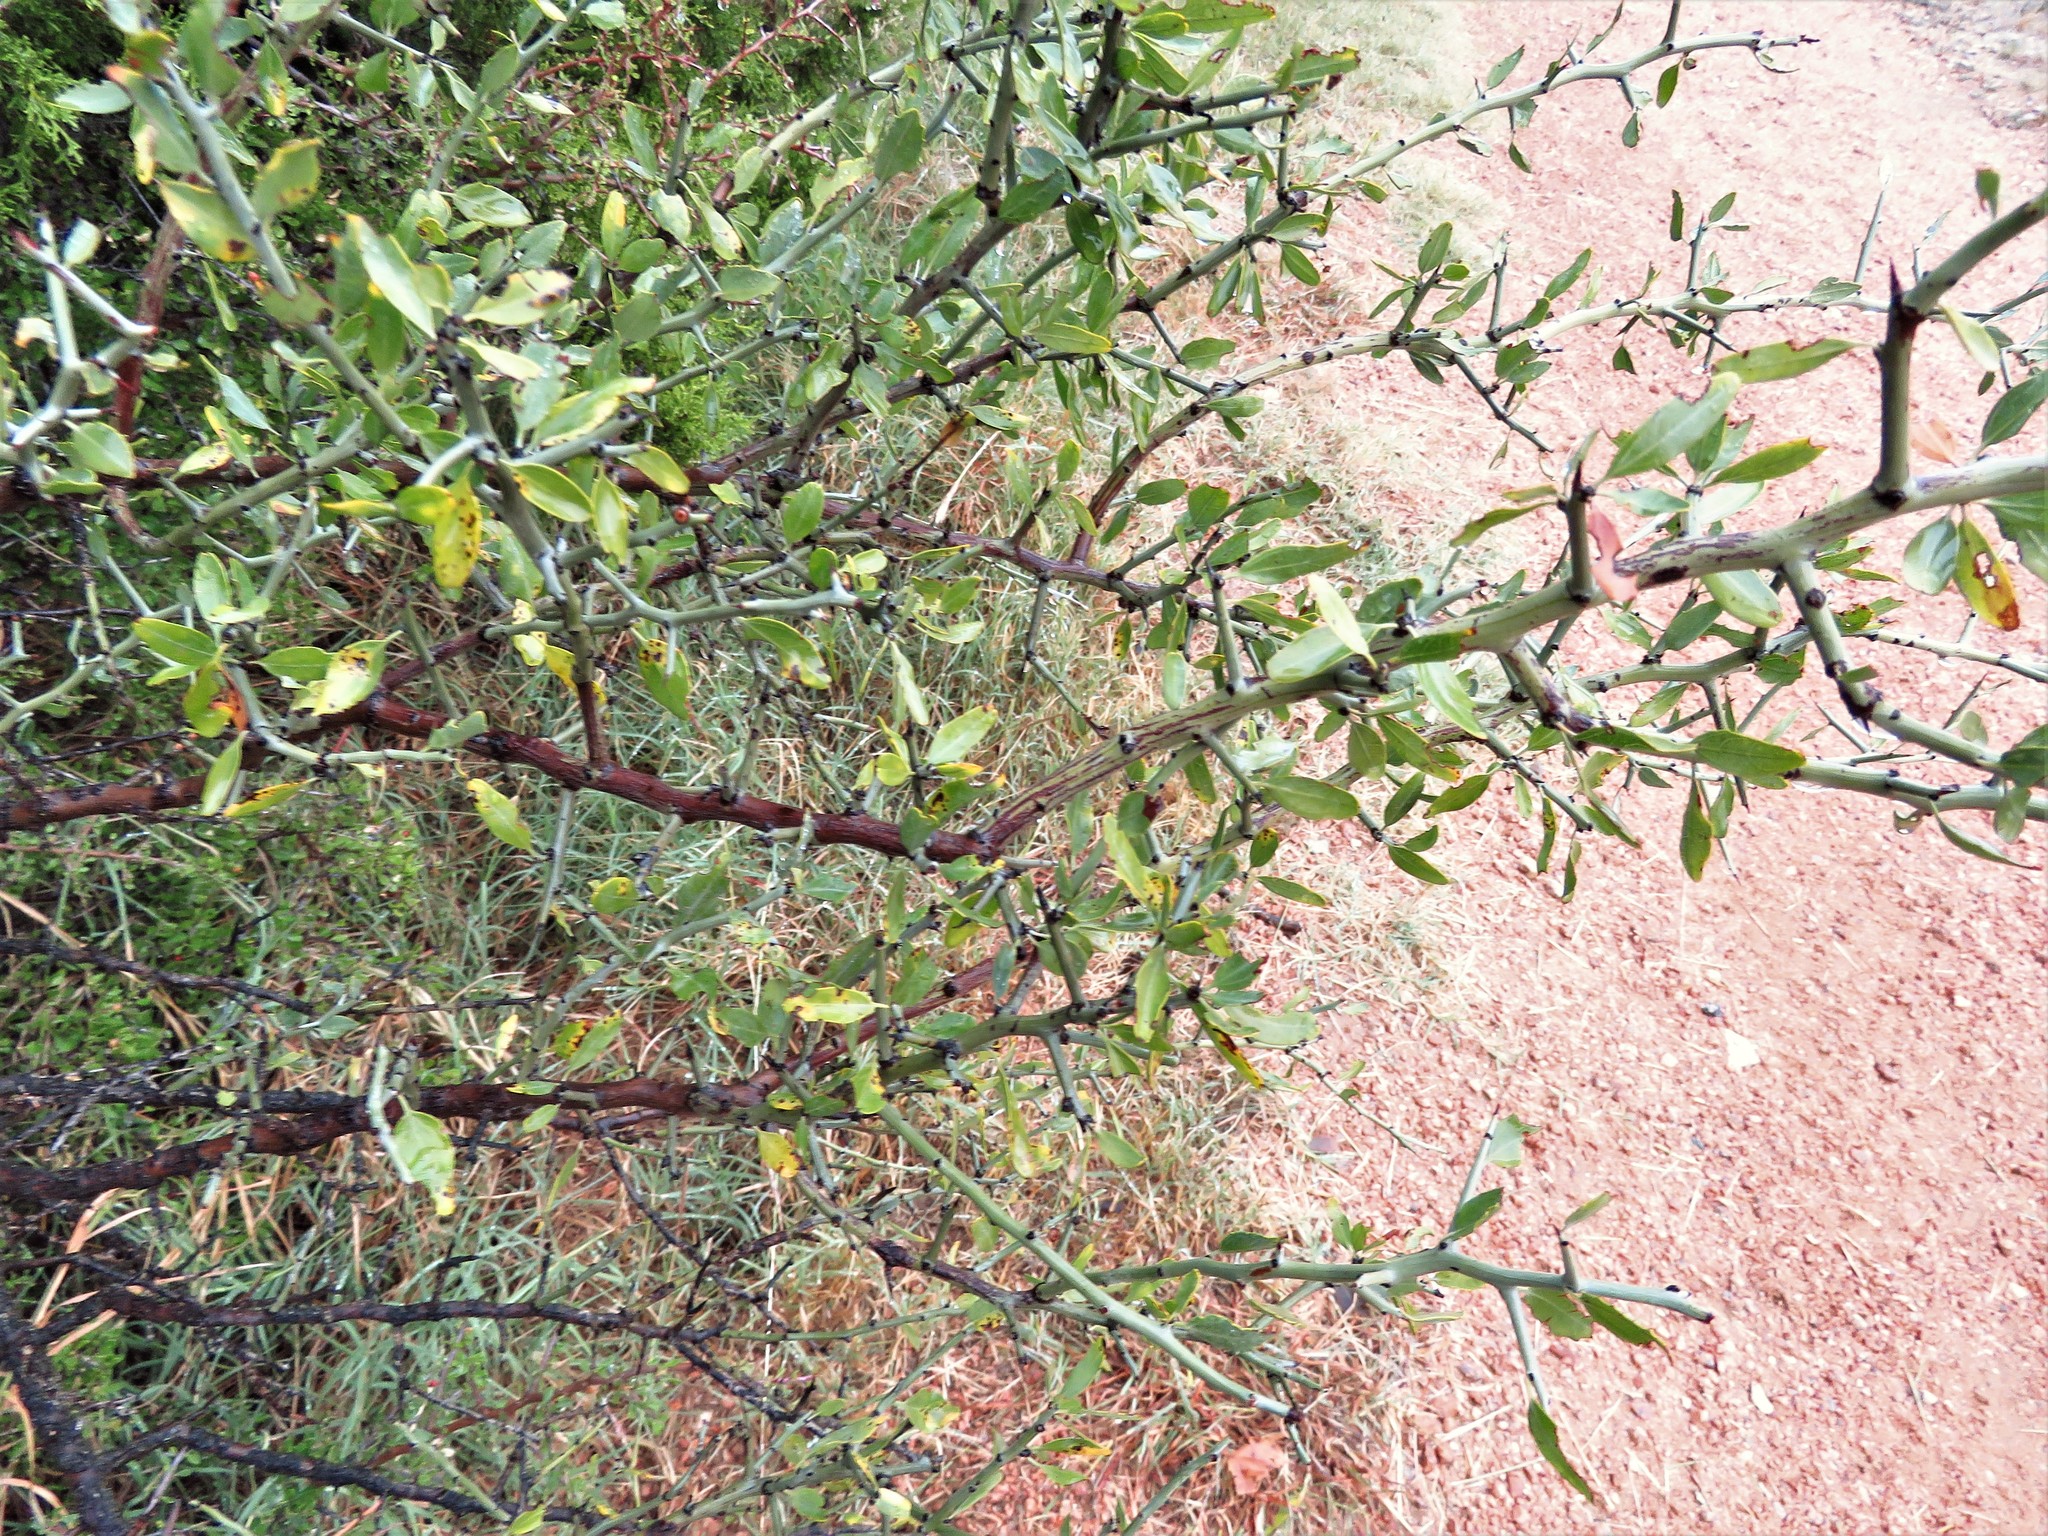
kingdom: Plantae
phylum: Tracheophyta
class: Magnoliopsida
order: Rosales
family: Rhamnaceae
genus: Sarcomphalus
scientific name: Sarcomphalus obtusifolius
